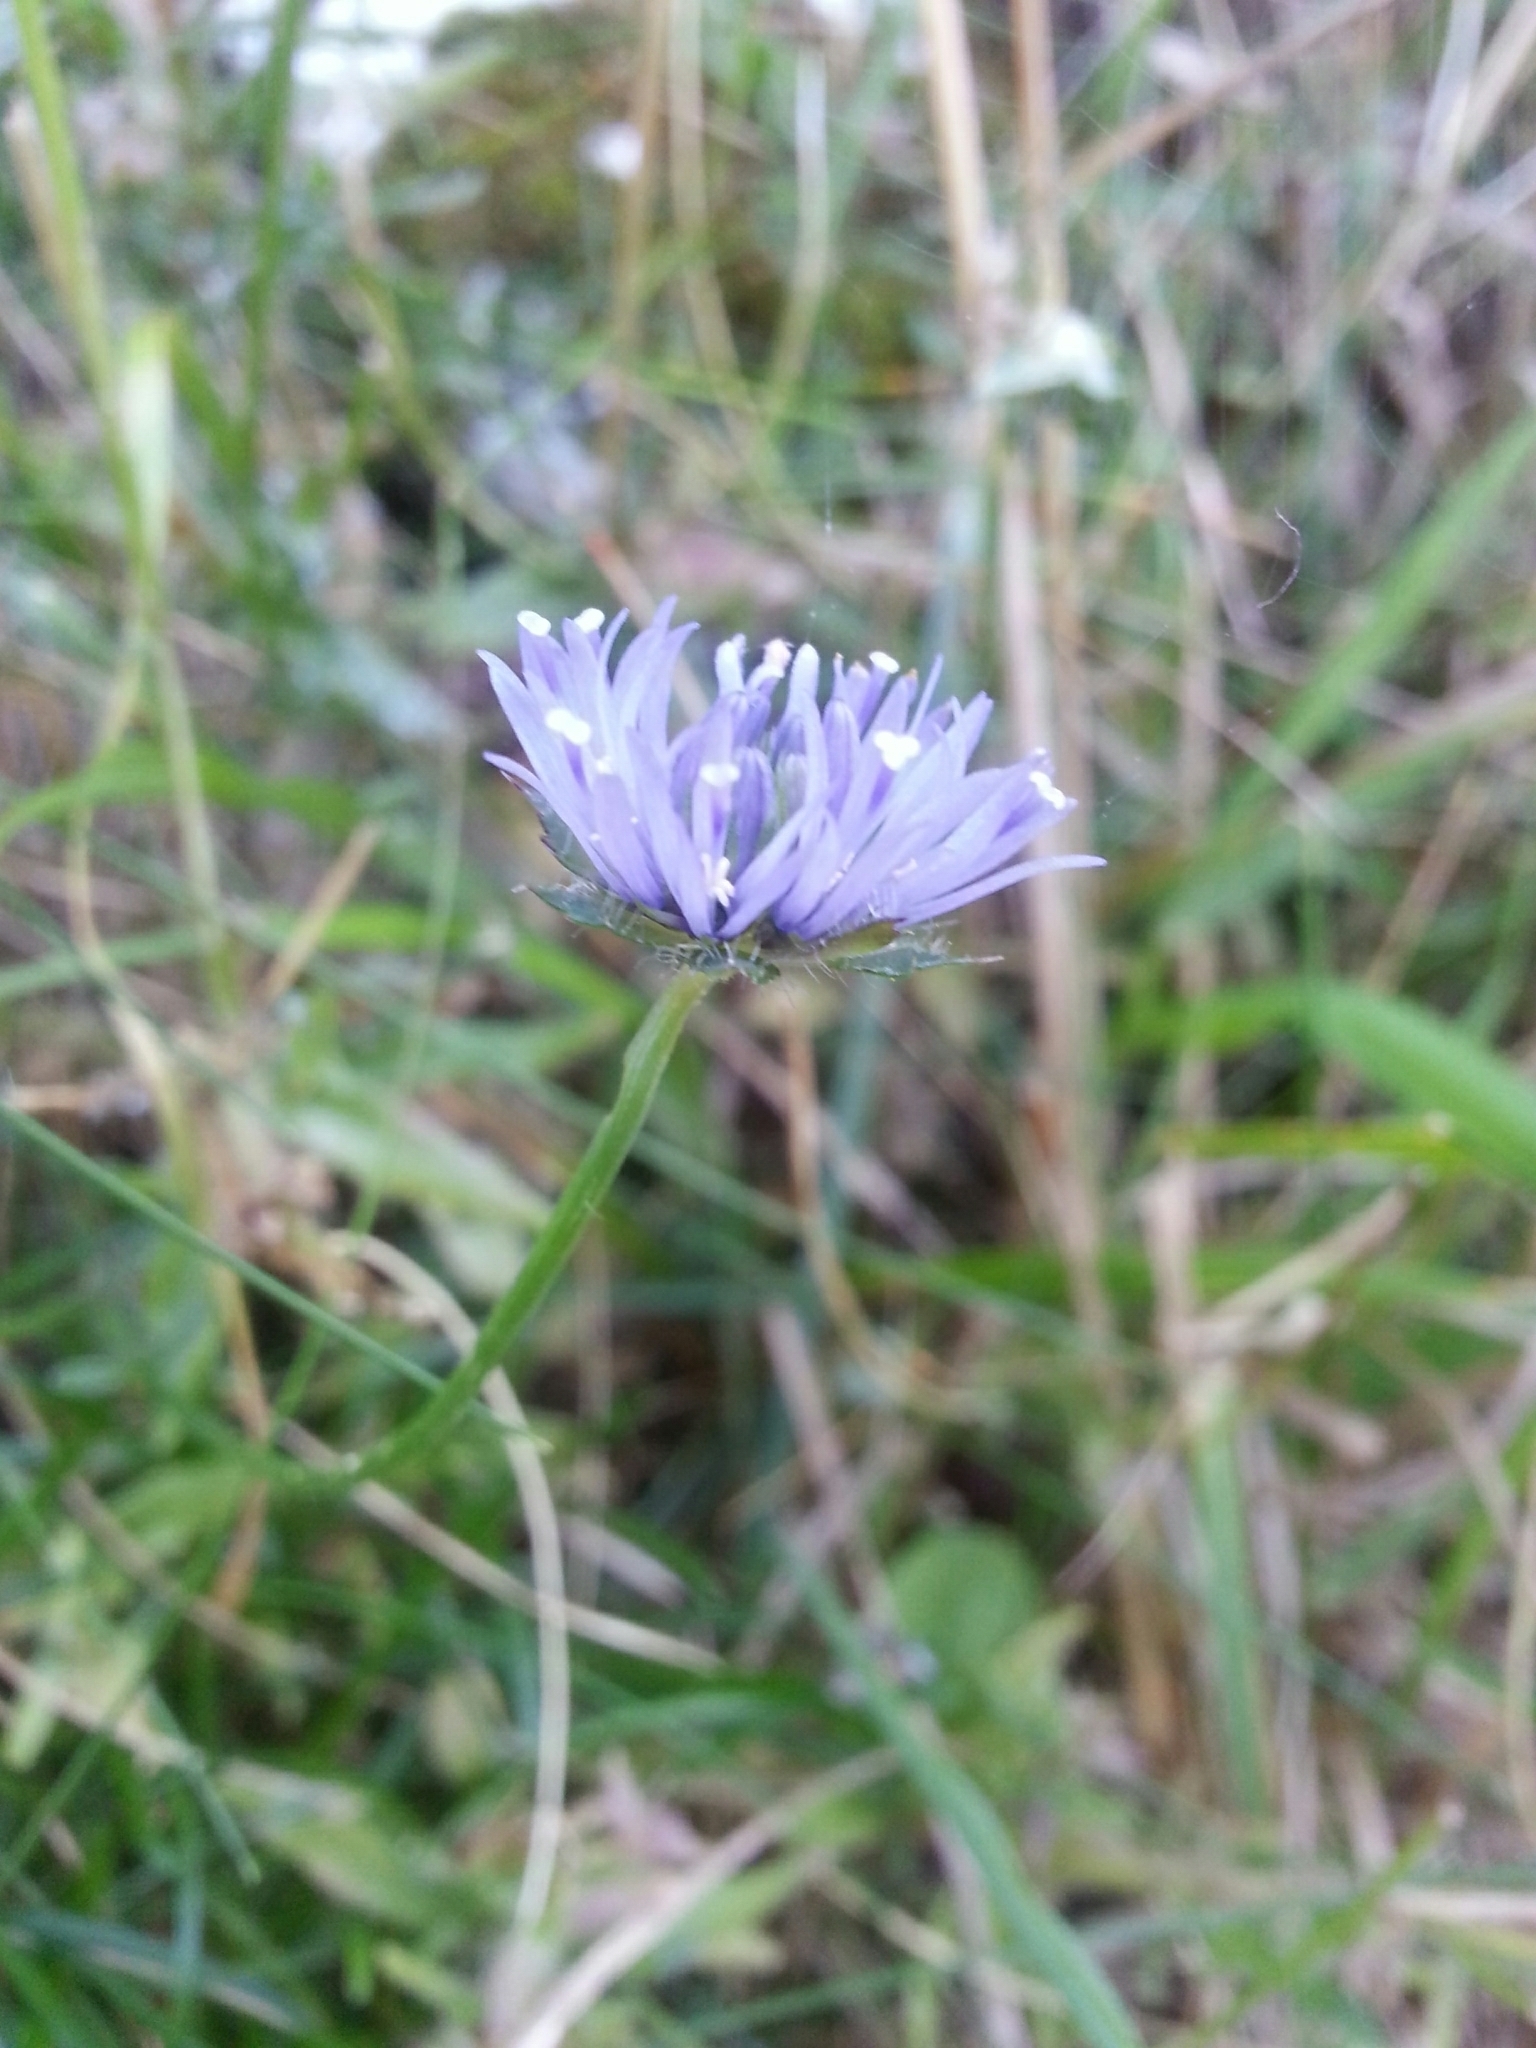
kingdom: Plantae
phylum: Tracheophyta
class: Magnoliopsida
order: Asterales
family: Campanulaceae
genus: Jasione
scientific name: Jasione montana
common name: Sheep's-bit
